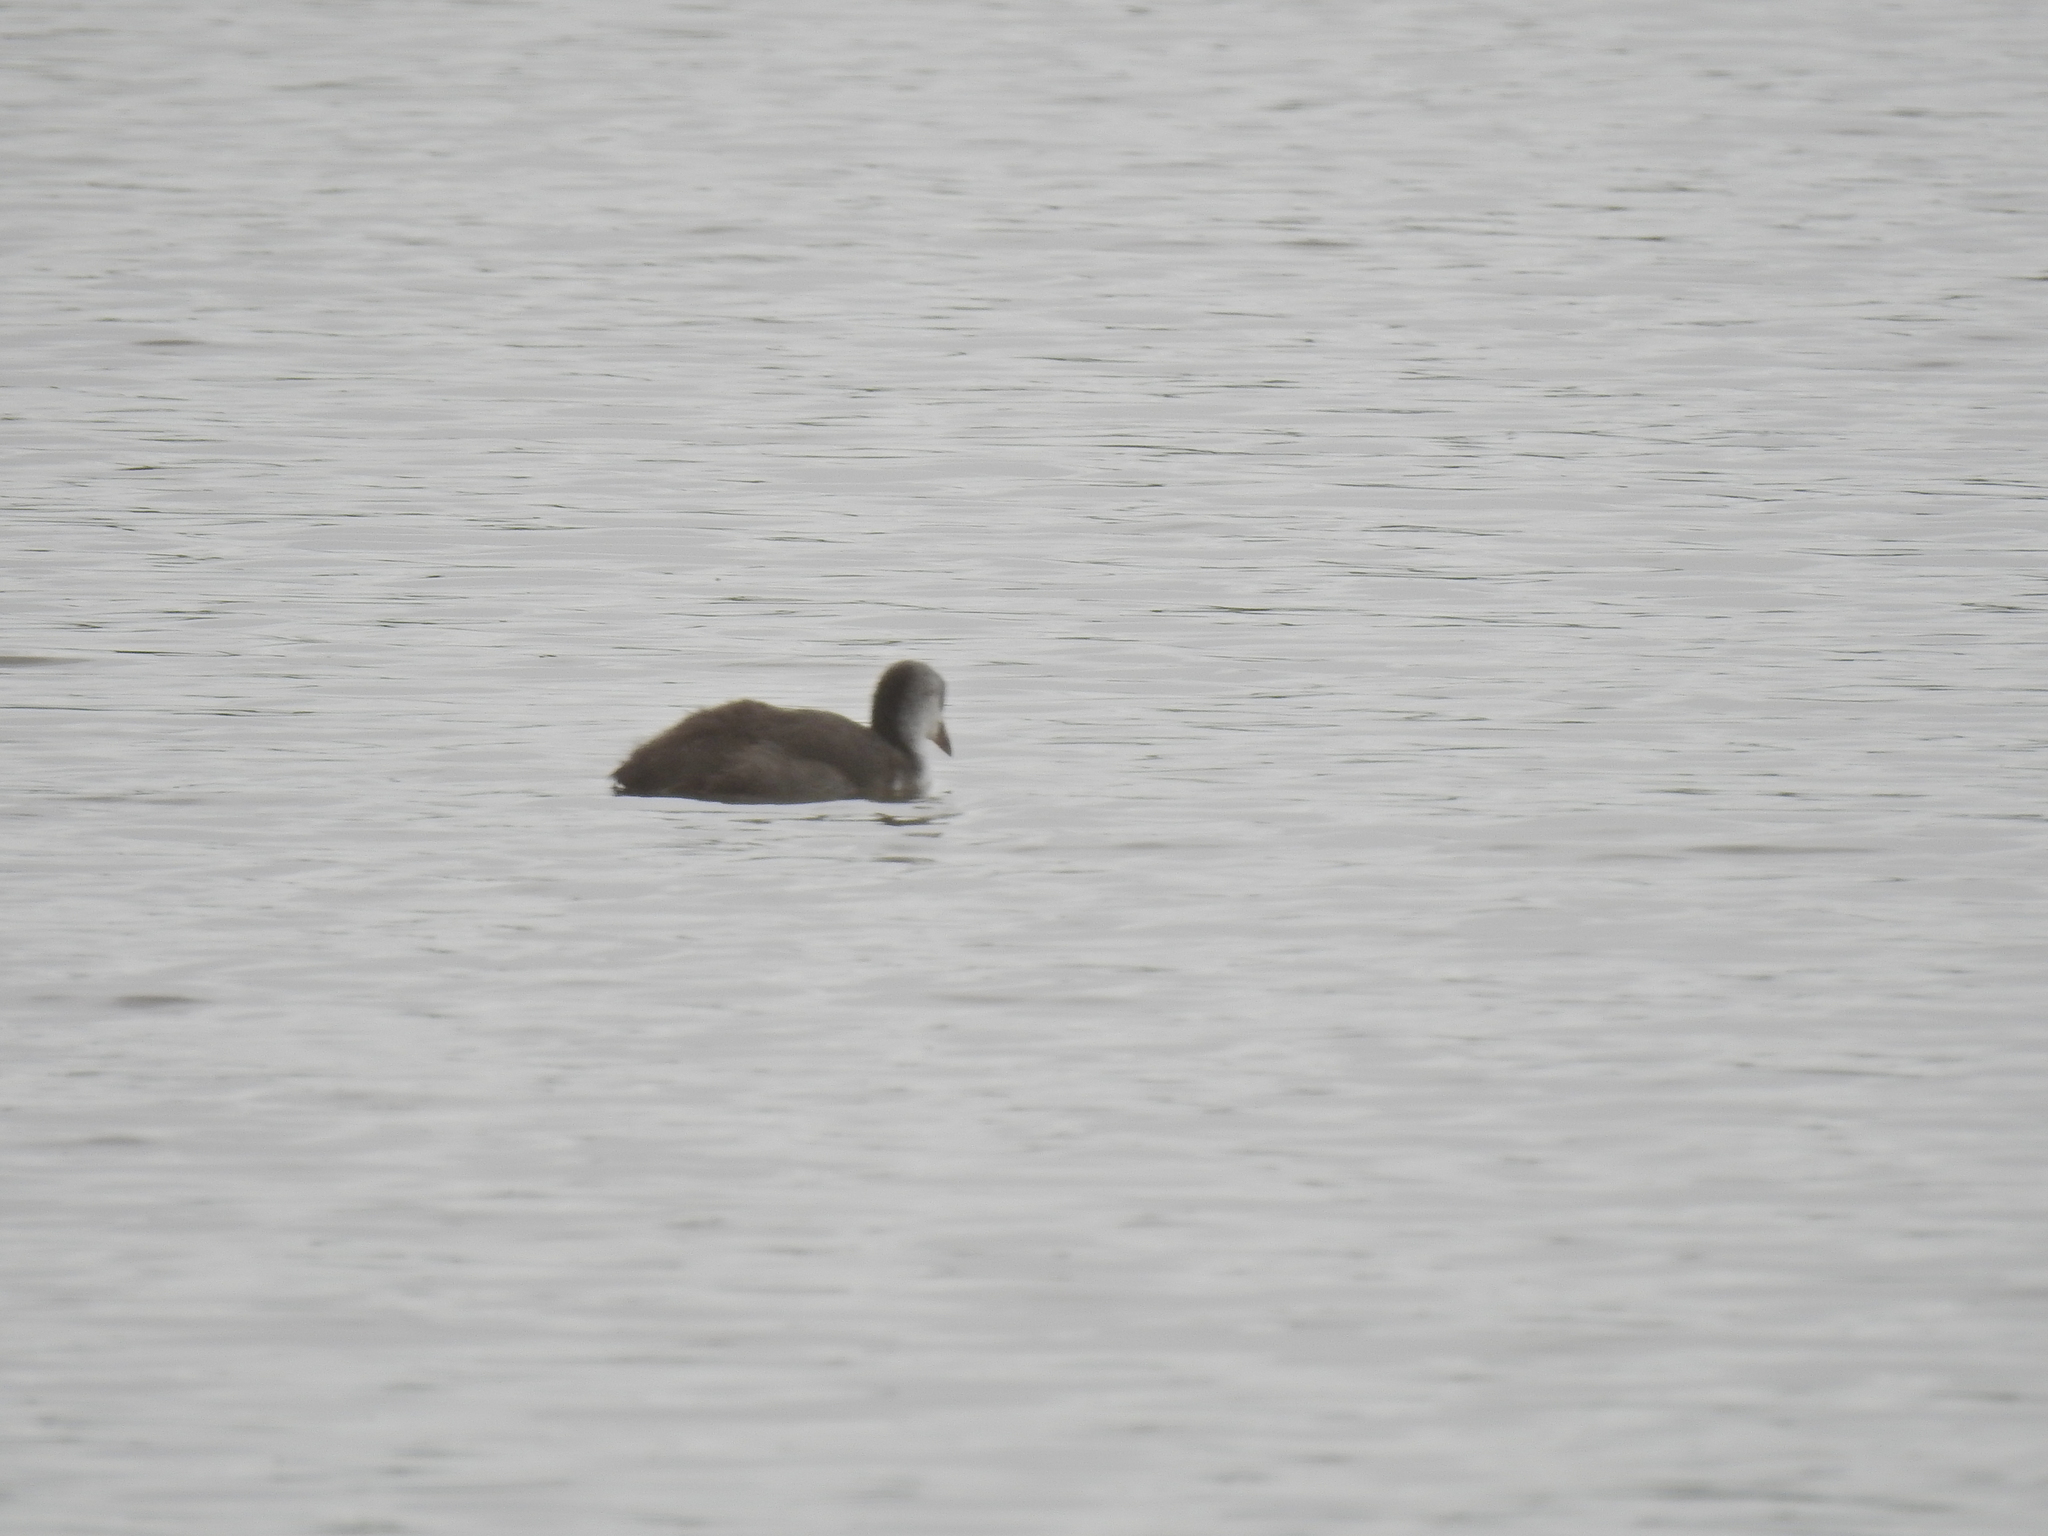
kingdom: Animalia
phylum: Chordata
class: Aves
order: Gruiformes
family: Rallidae
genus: Fulica
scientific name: Fulica atra
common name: Eurasian coot
